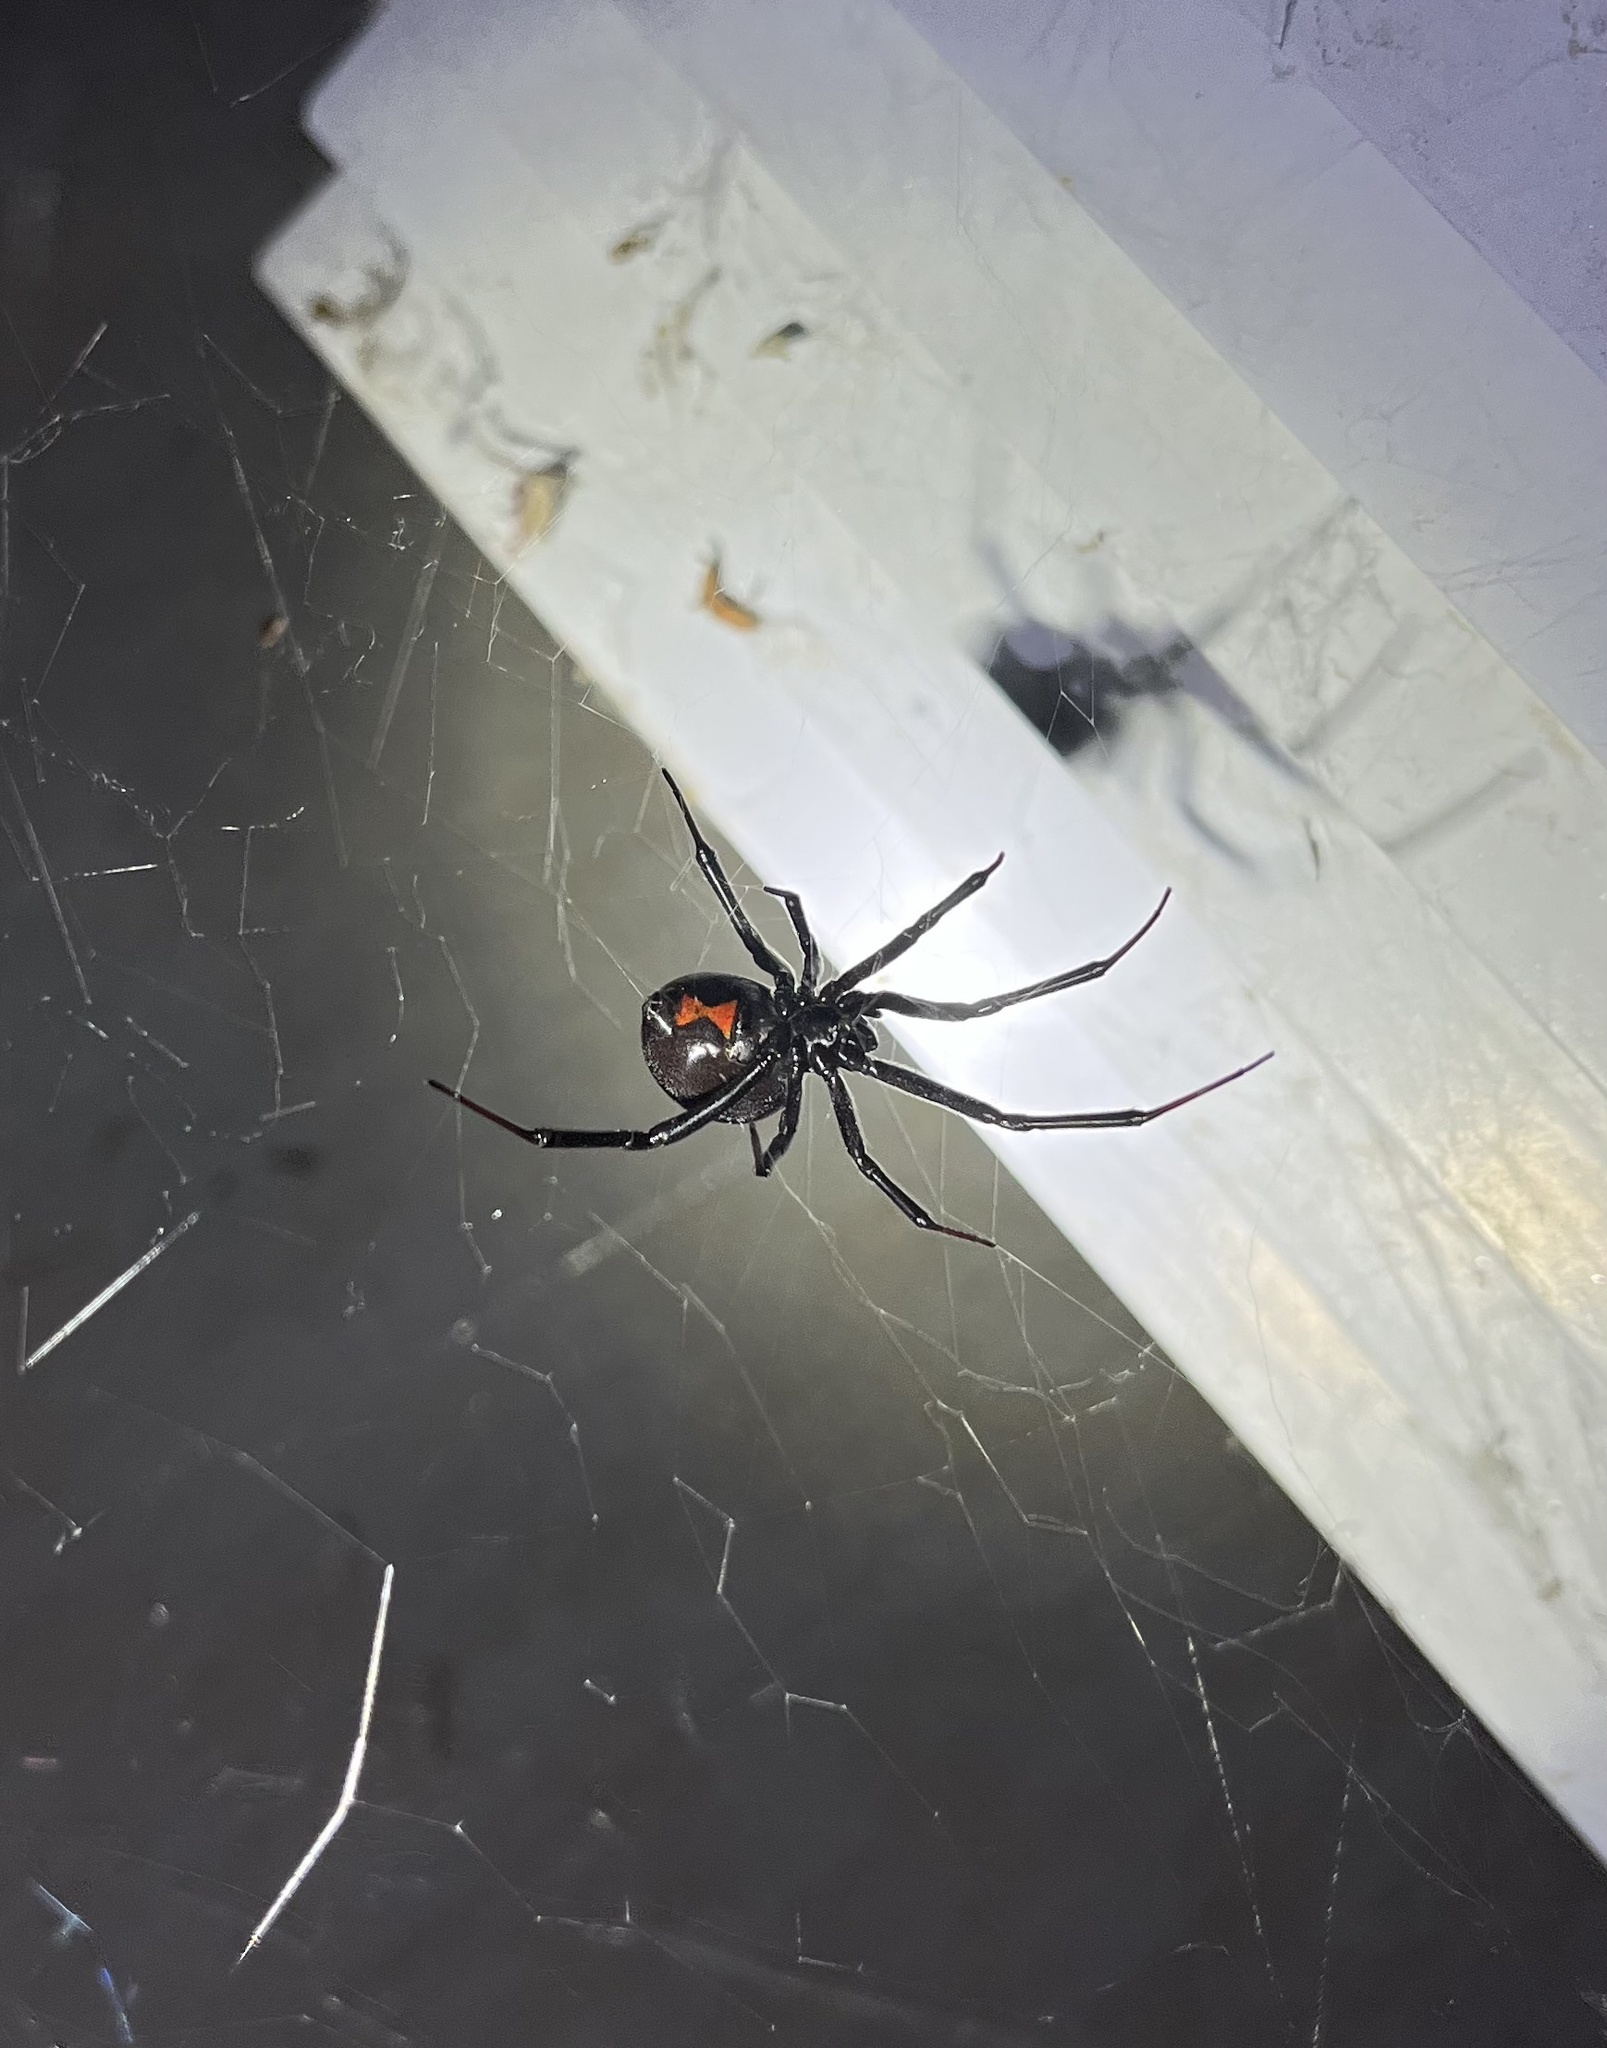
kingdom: Animalia
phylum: Arthropoda
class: Arachnida
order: Araneae
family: Theridiidae
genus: Latrodectus
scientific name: Latrodectus hesperus
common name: Western black widow
